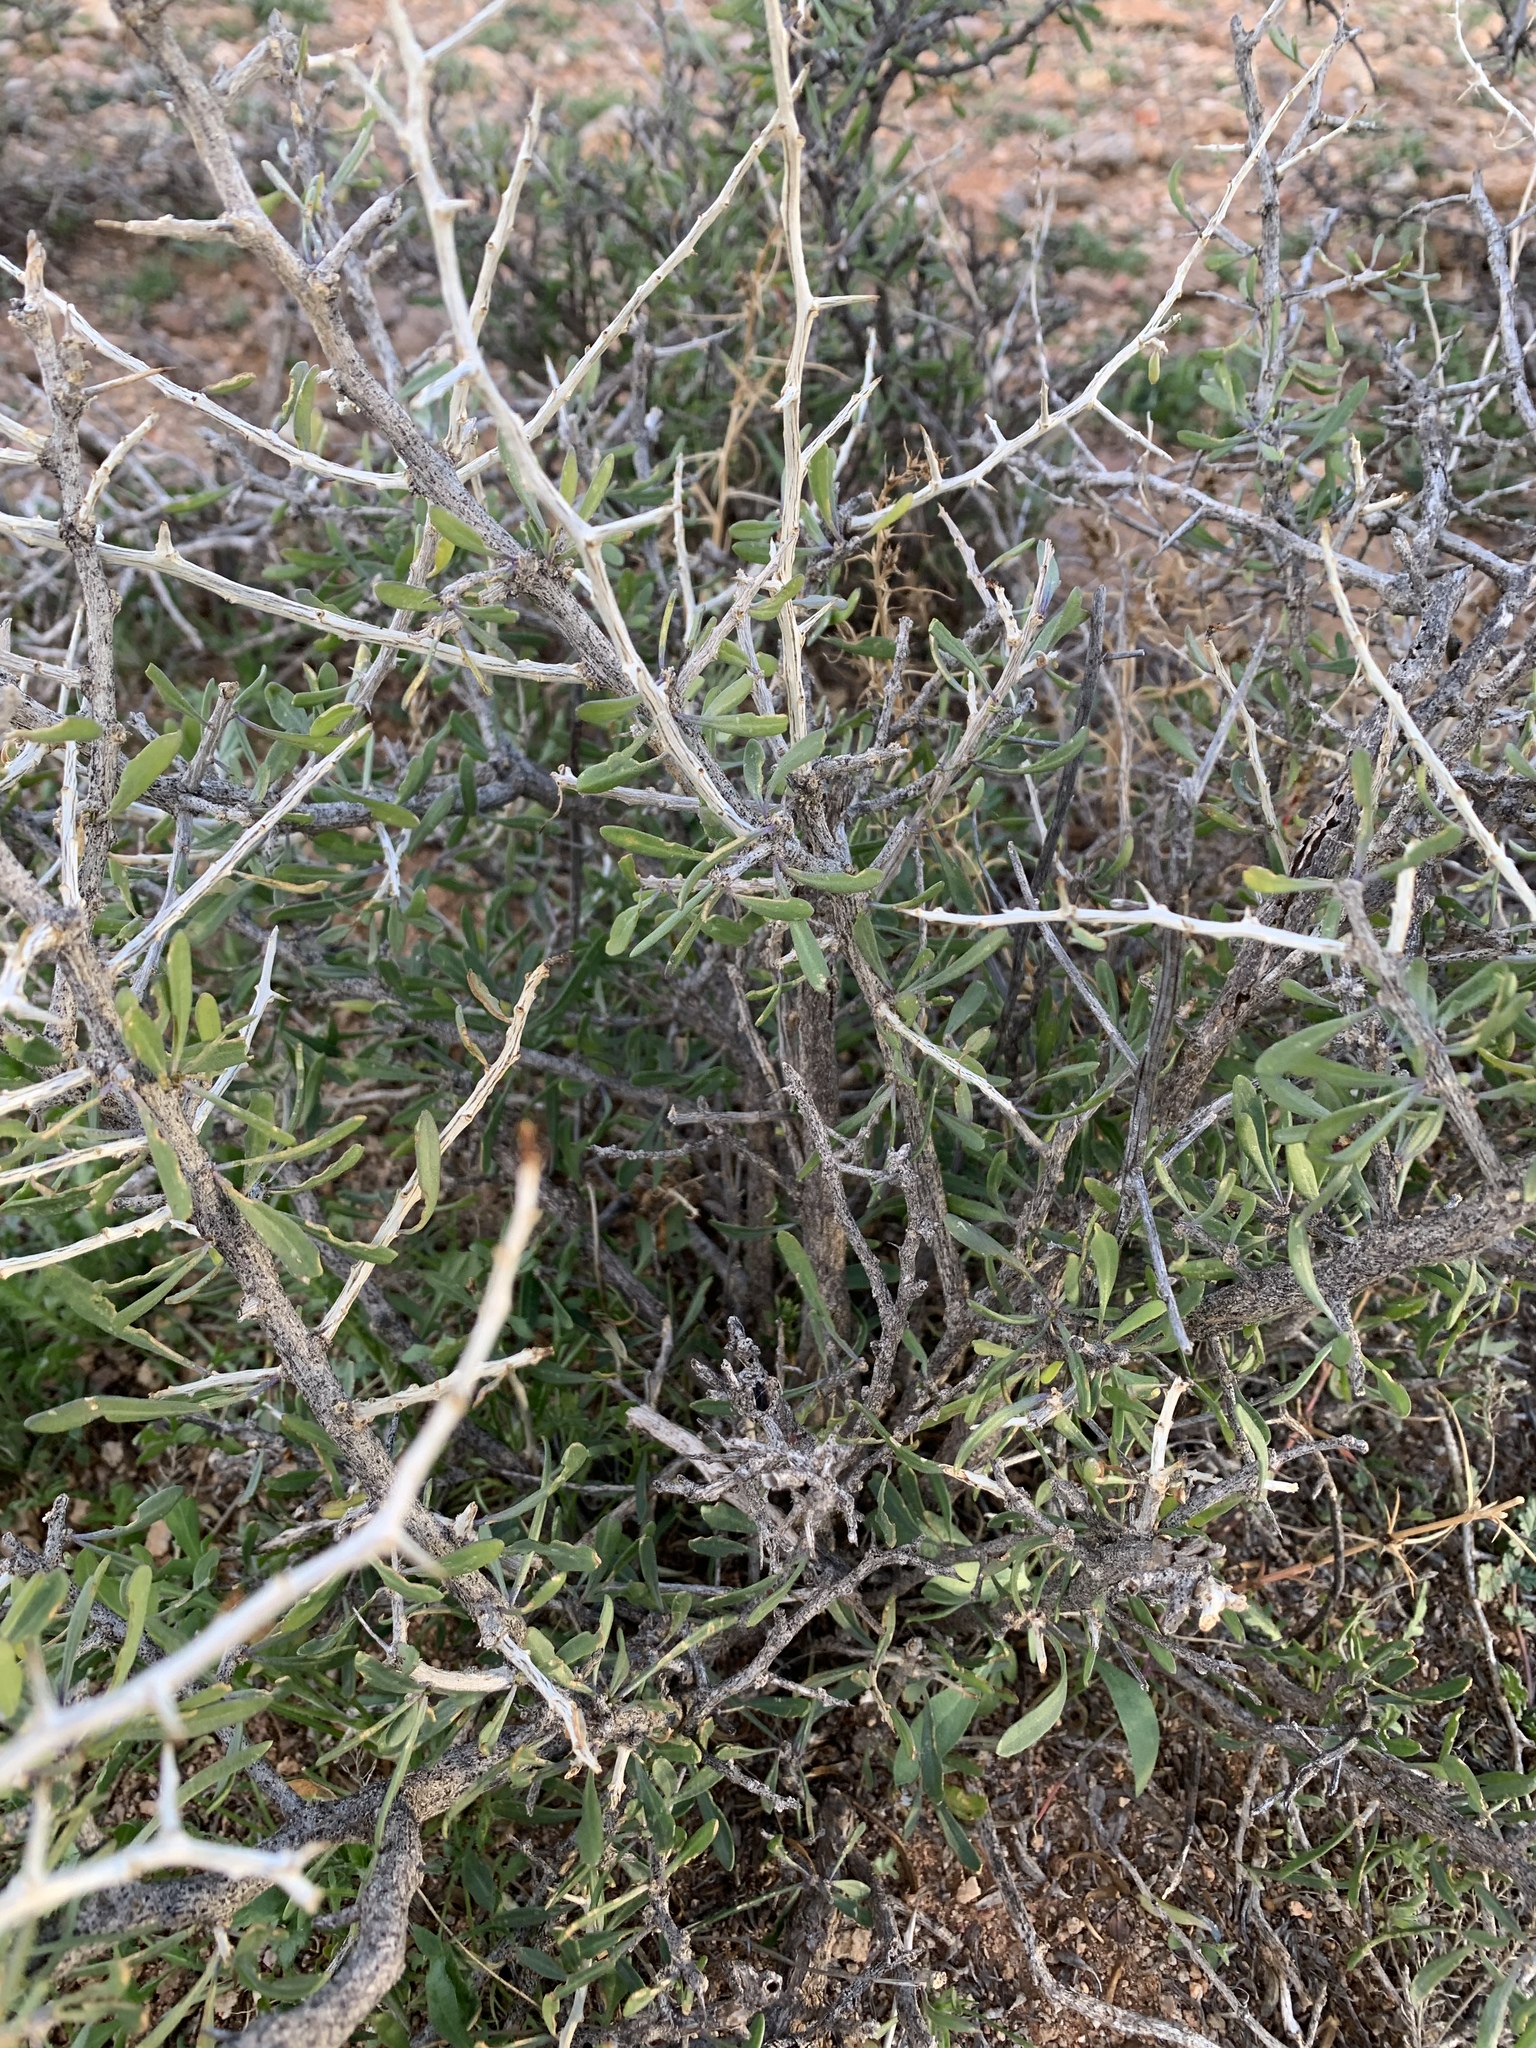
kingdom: Plantae
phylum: Tracheophyta
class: Magnoliopsida
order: Solanales
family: Solanaceae
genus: Lycium
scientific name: Lycium andersonii
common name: Water-jacket
